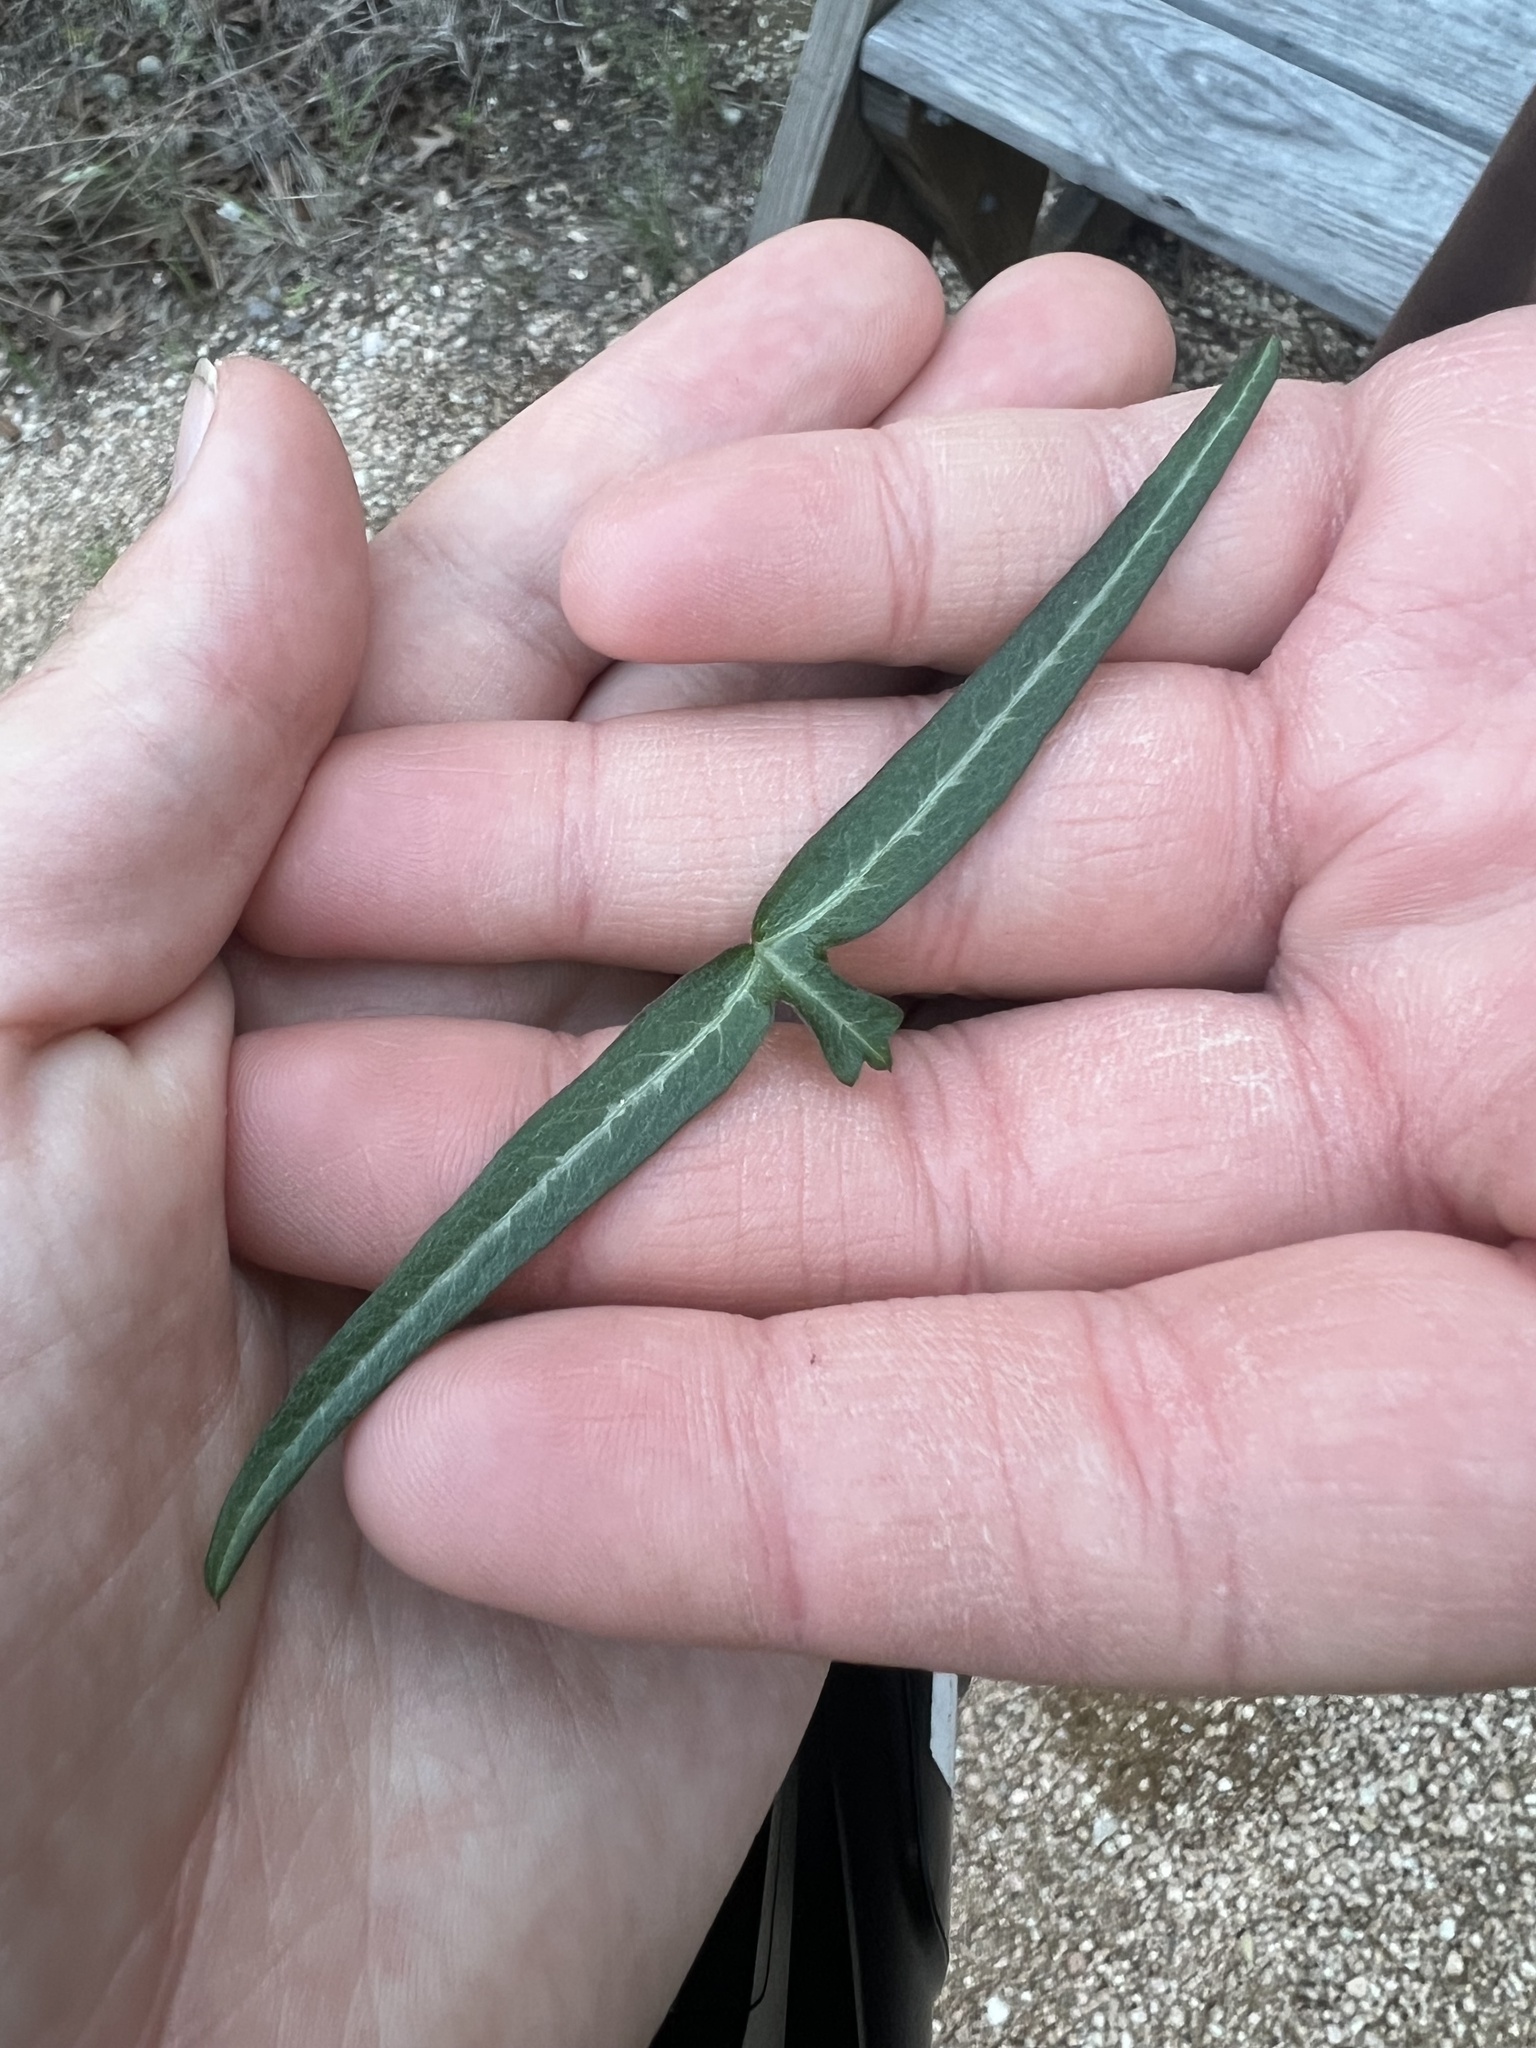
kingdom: Plantae
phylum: Tracheophyta
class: Magnoliopsida
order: Malpighiales
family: Passifloraceae
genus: Passiflora
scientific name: Passiflora tenuiloba
